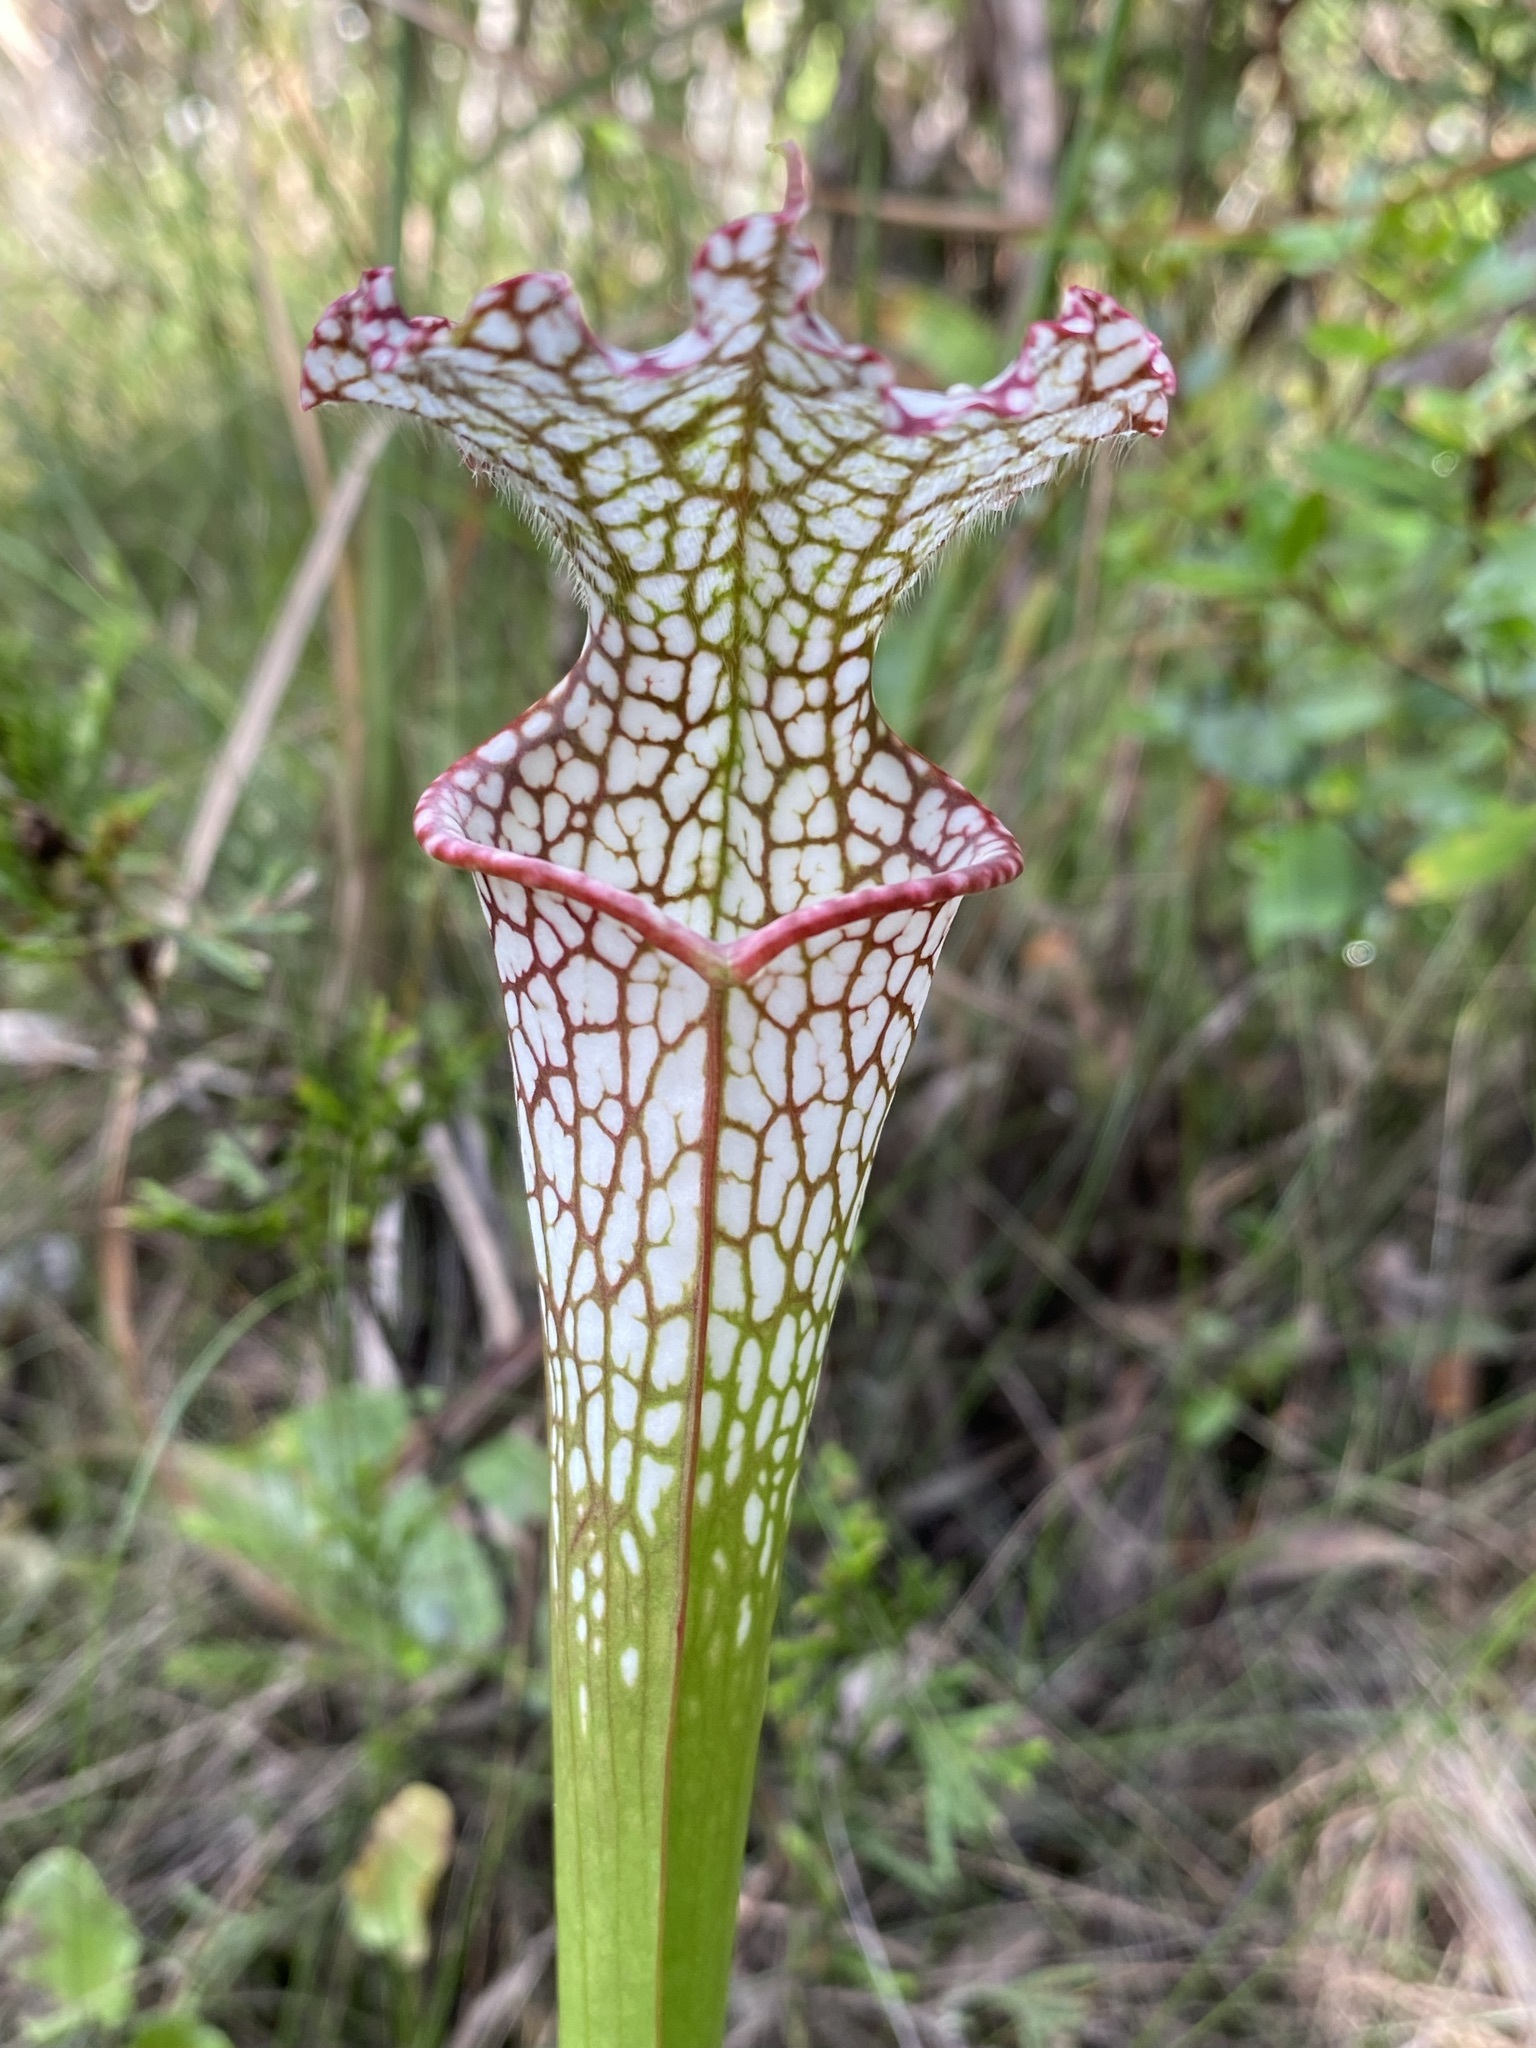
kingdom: Plantae
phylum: Tracheophyta
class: Magnoliopsida
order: Ericales
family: Sarraceniaceae
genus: Sarracenia
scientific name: Sarracenia leucophylla
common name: Purple trumpetleaf
